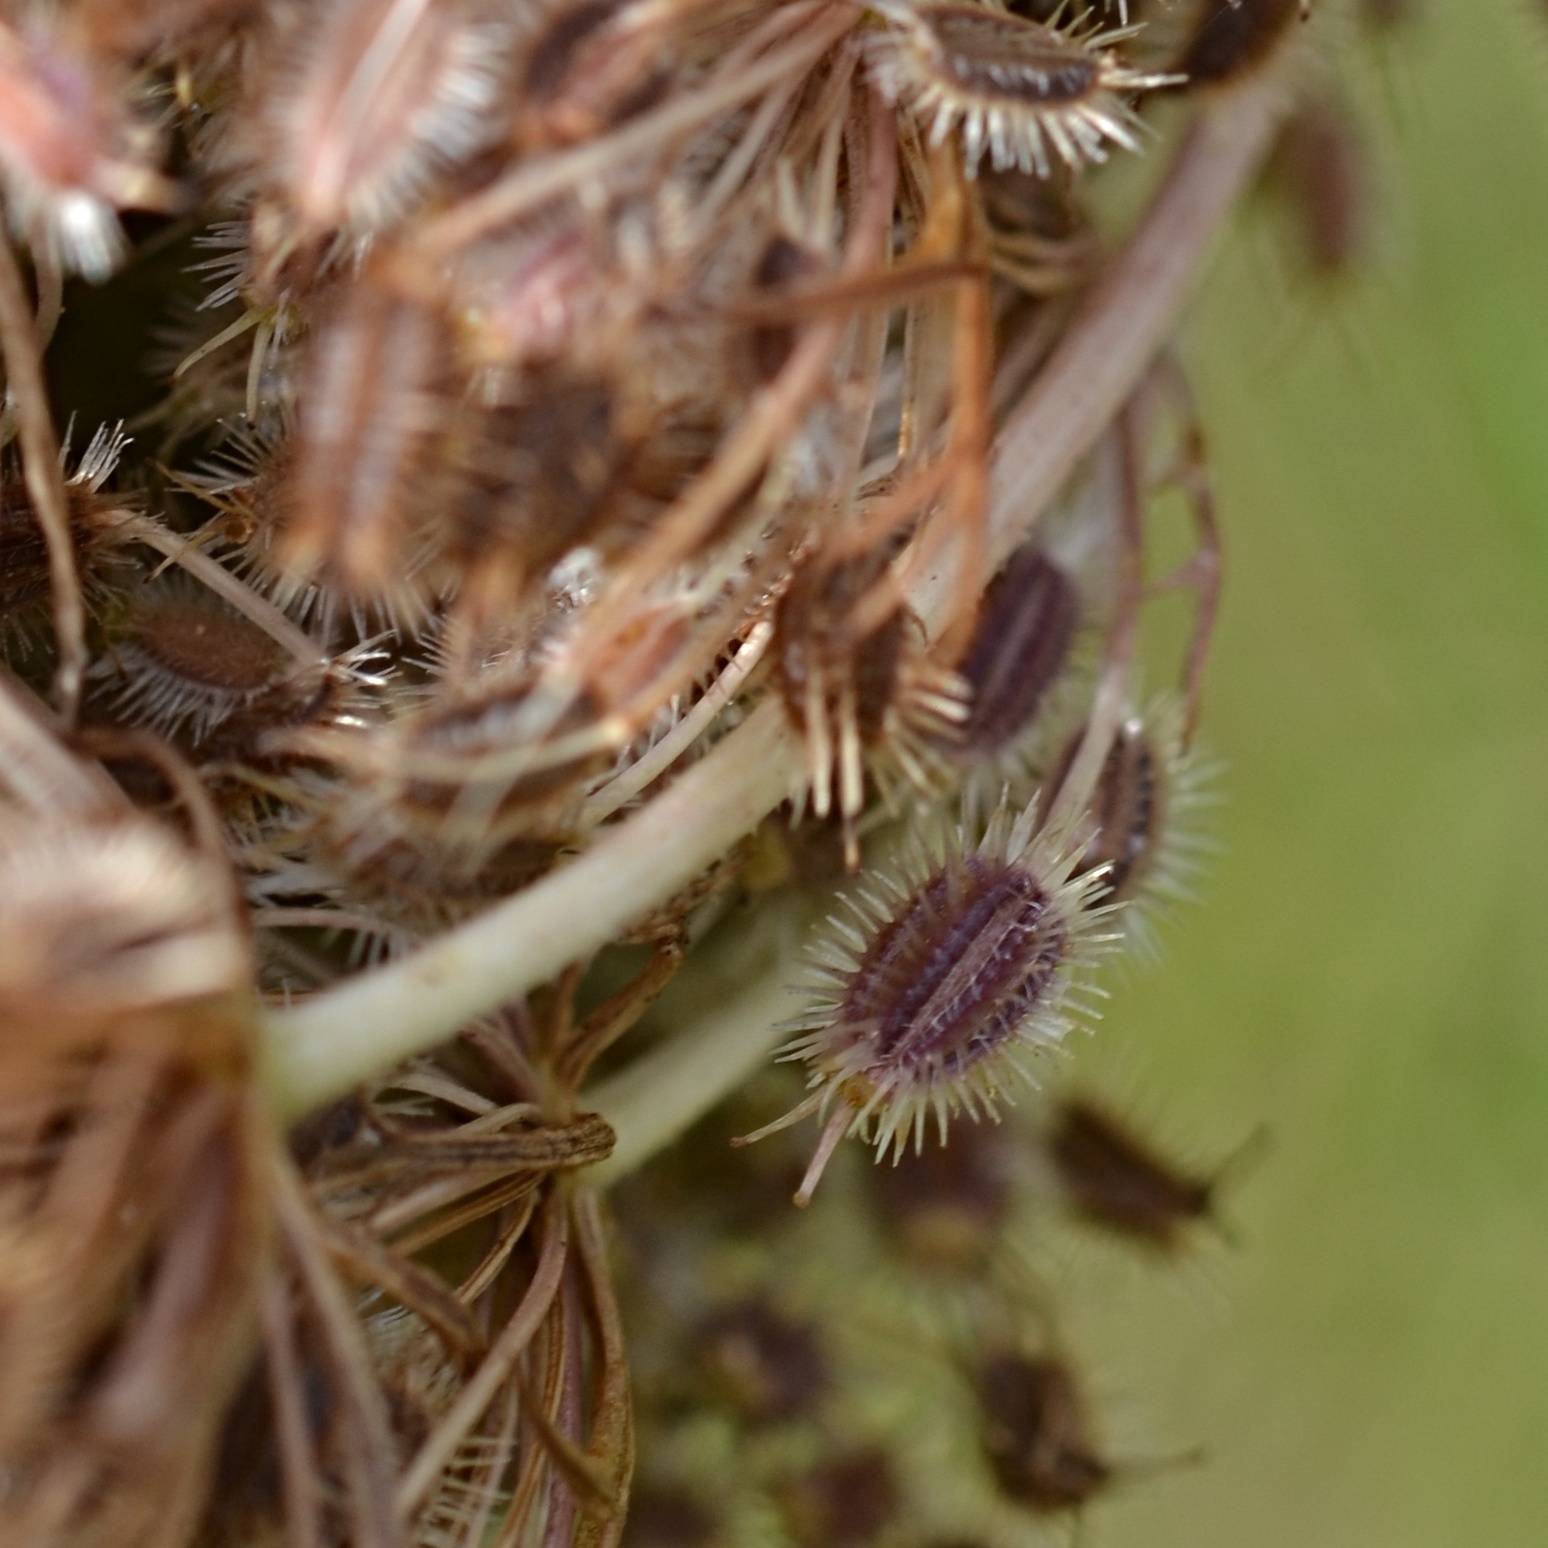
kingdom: Plantae
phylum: Tracheophyta
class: Magnoliopsida
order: Apiales
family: Apiaceae
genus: Daucus
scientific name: Daucus carota
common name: Wild carrot
